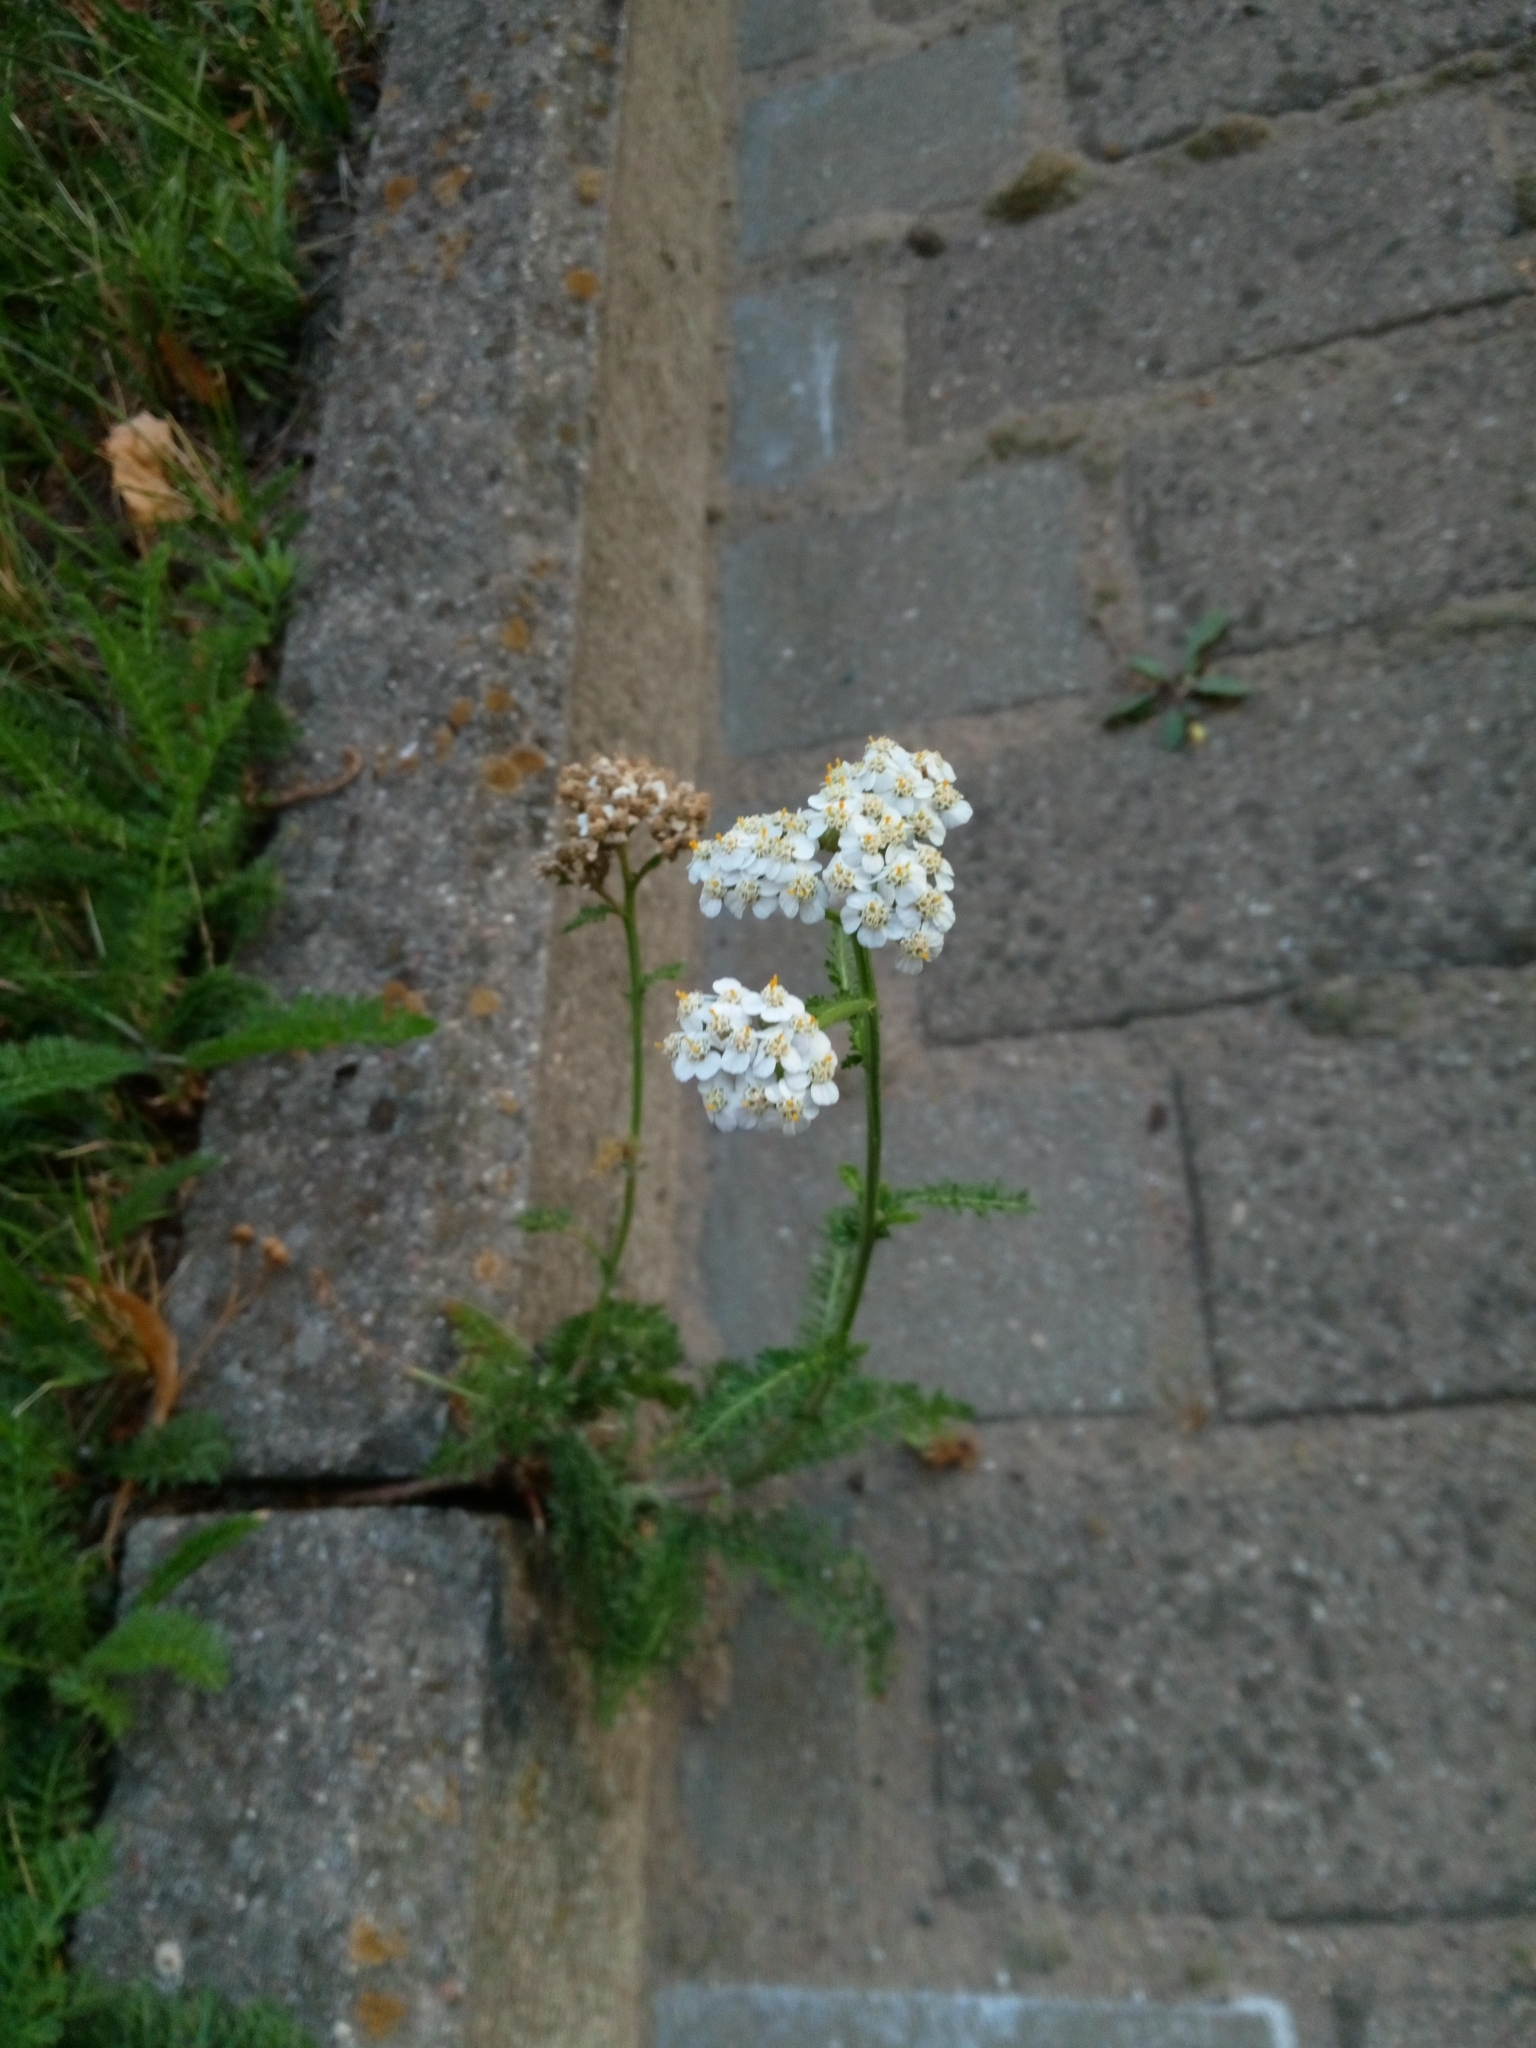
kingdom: Plantae
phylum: Tracheophyta
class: Magnoliopsida
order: Asterales
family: Asteraceae
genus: Achillea
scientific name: Achillea millefolium
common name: Yarrow
